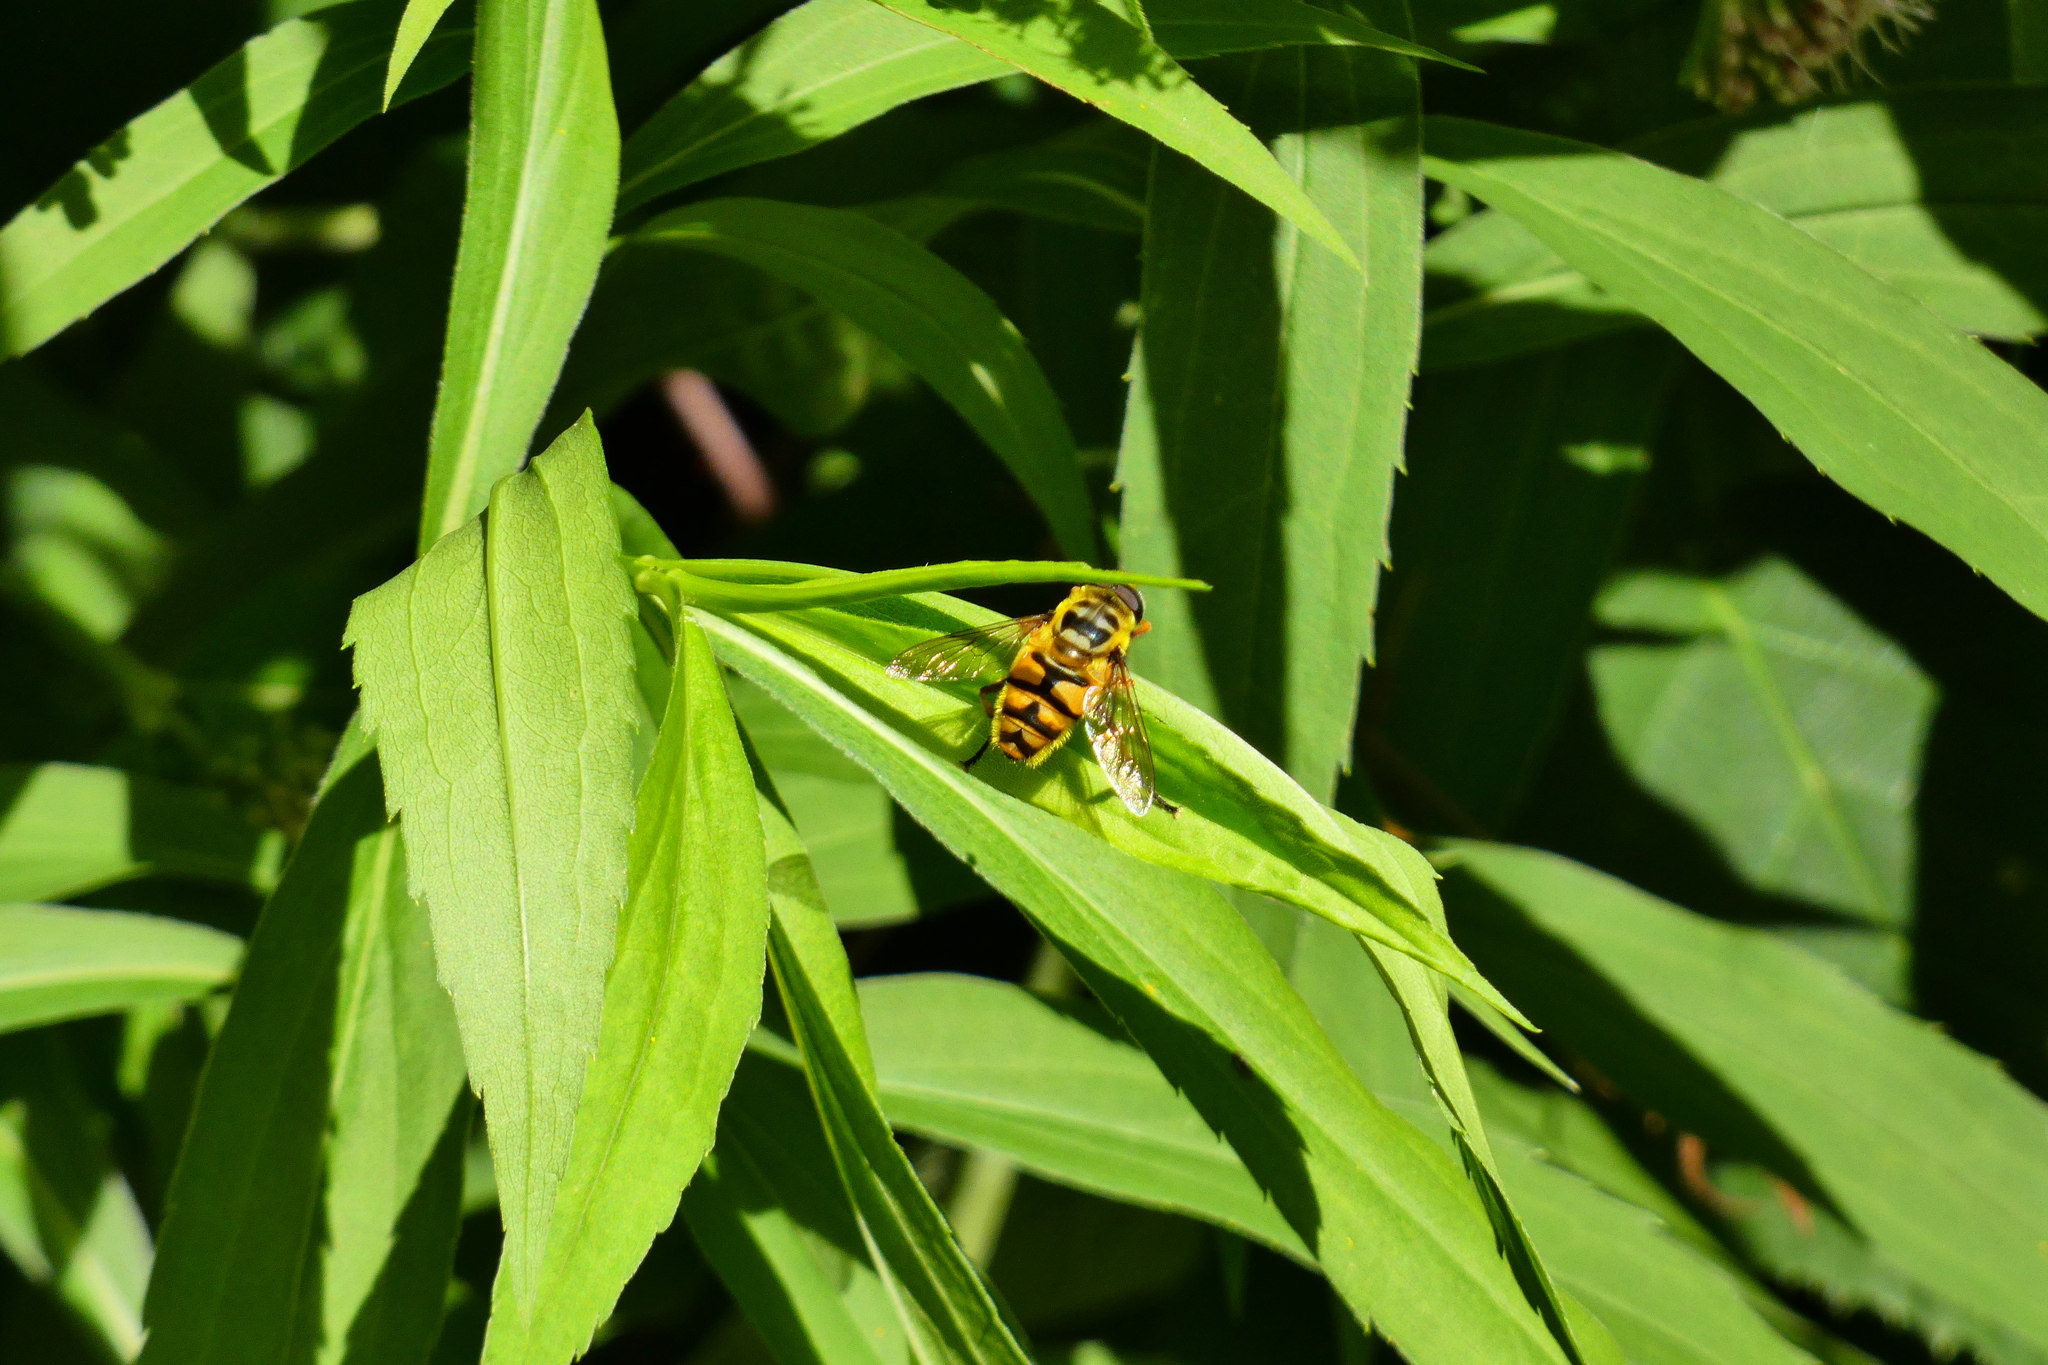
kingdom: Animalia
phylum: Arthropoda
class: Insecta
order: Diptera
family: Syrphidae
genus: Myathropa
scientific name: Myathropa florea
